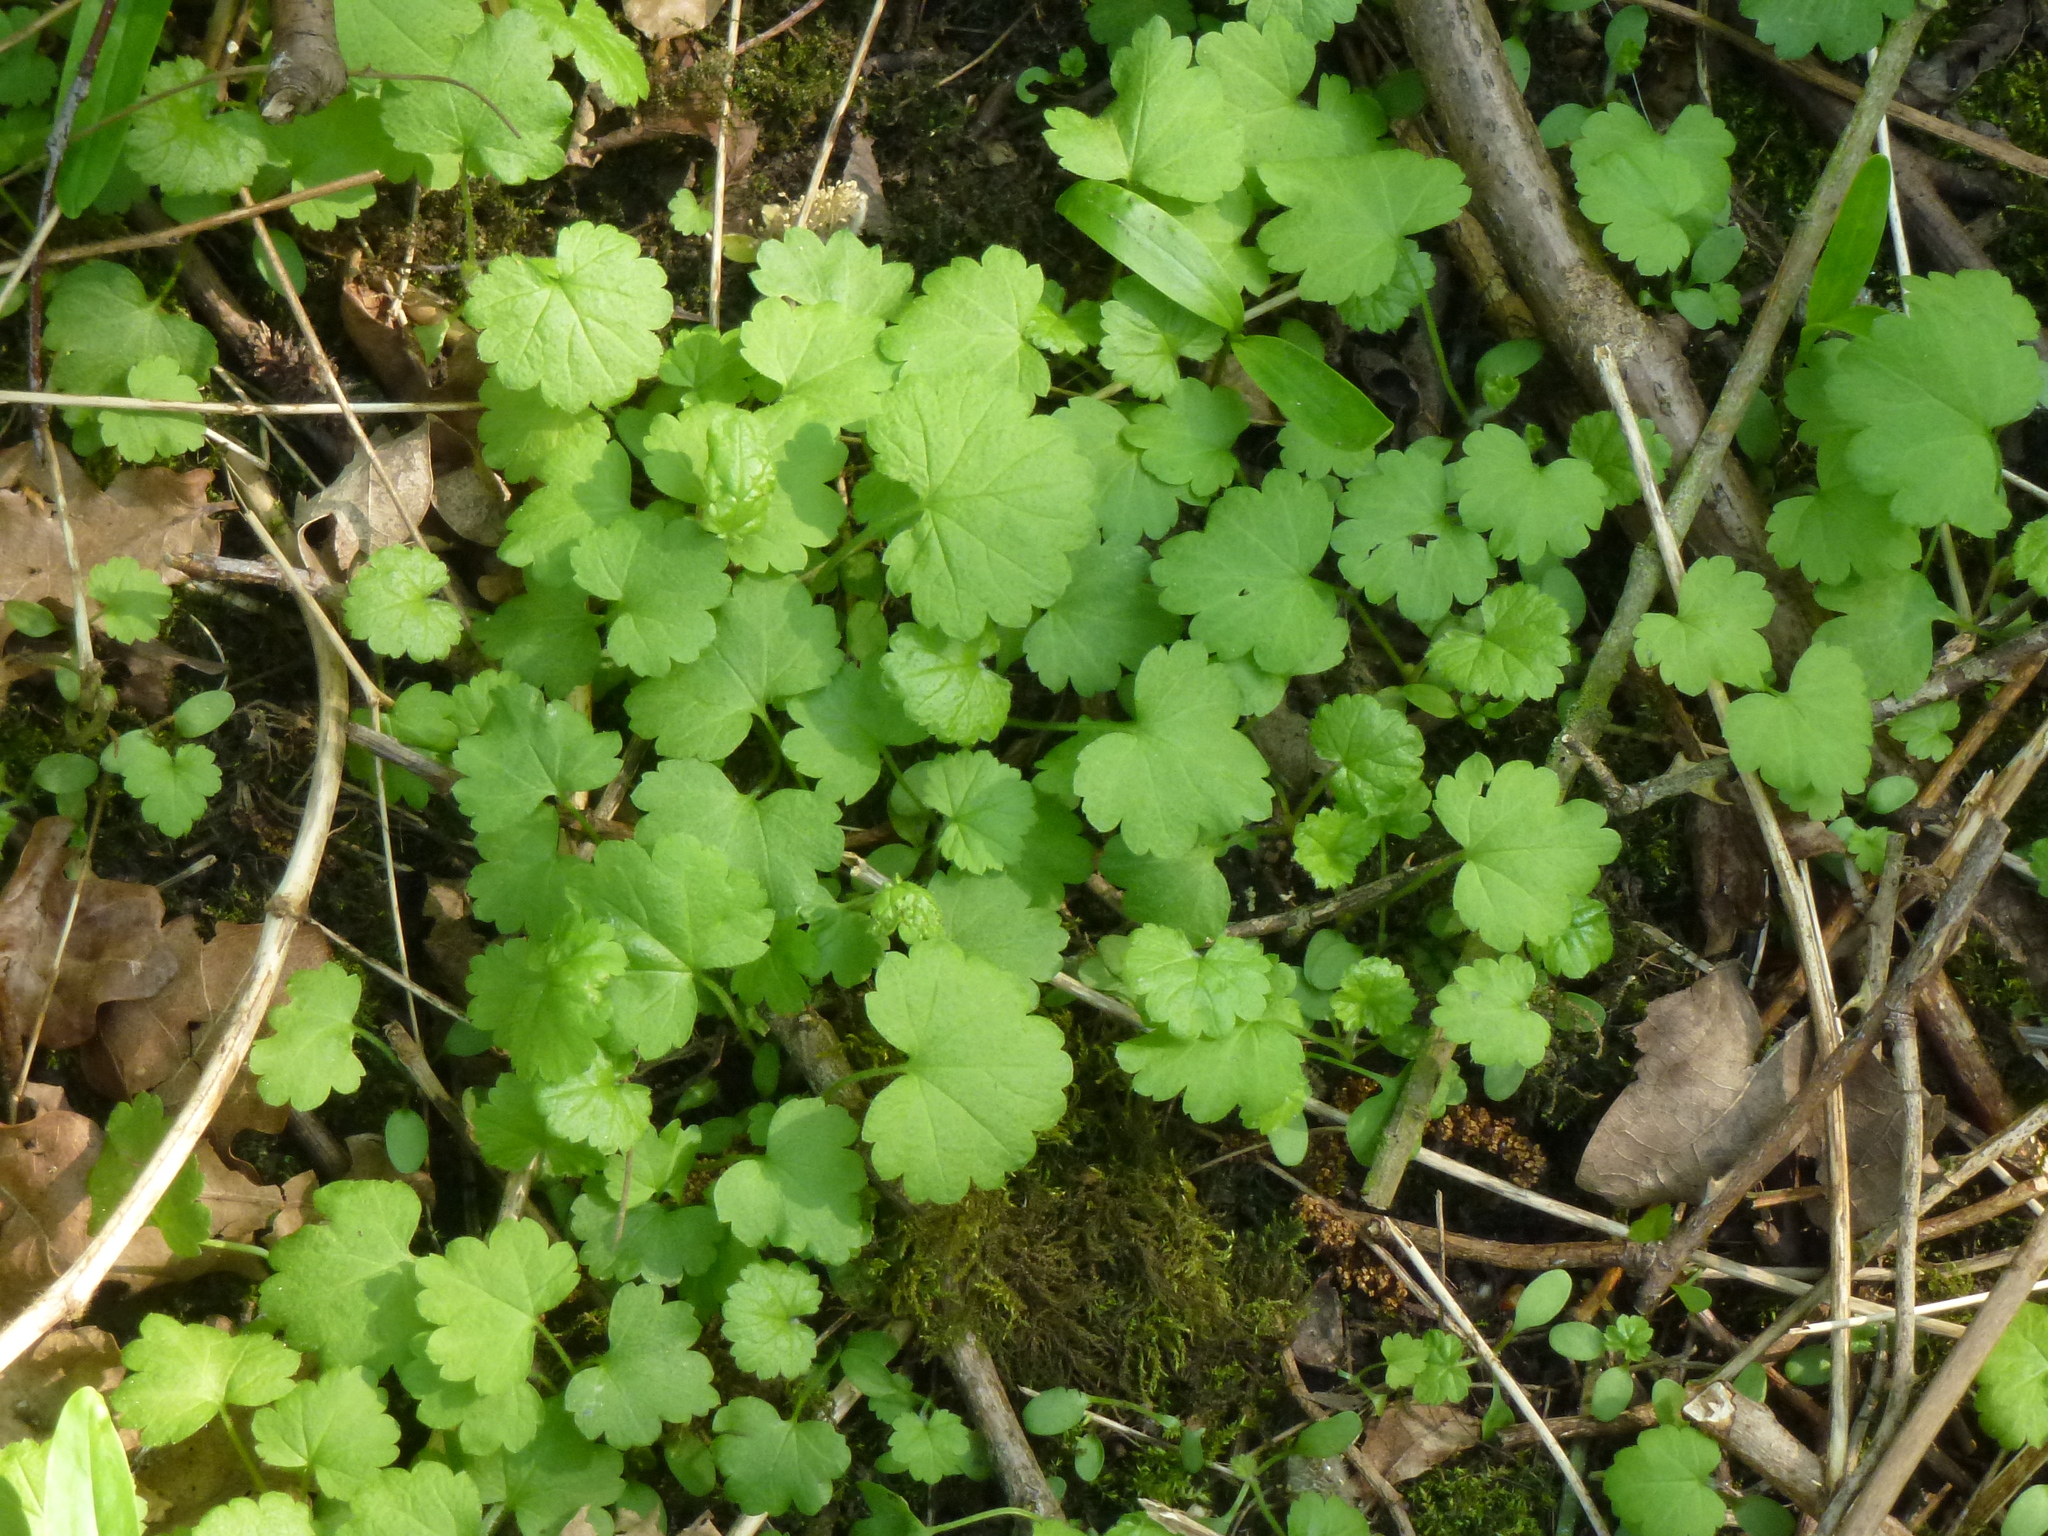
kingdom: Plantae
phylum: Tracheophyta
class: Magnoliopsida
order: Lamiales
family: Lamiaceae
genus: Glechoma
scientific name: Glechoma hederacea
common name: Ground ivy
